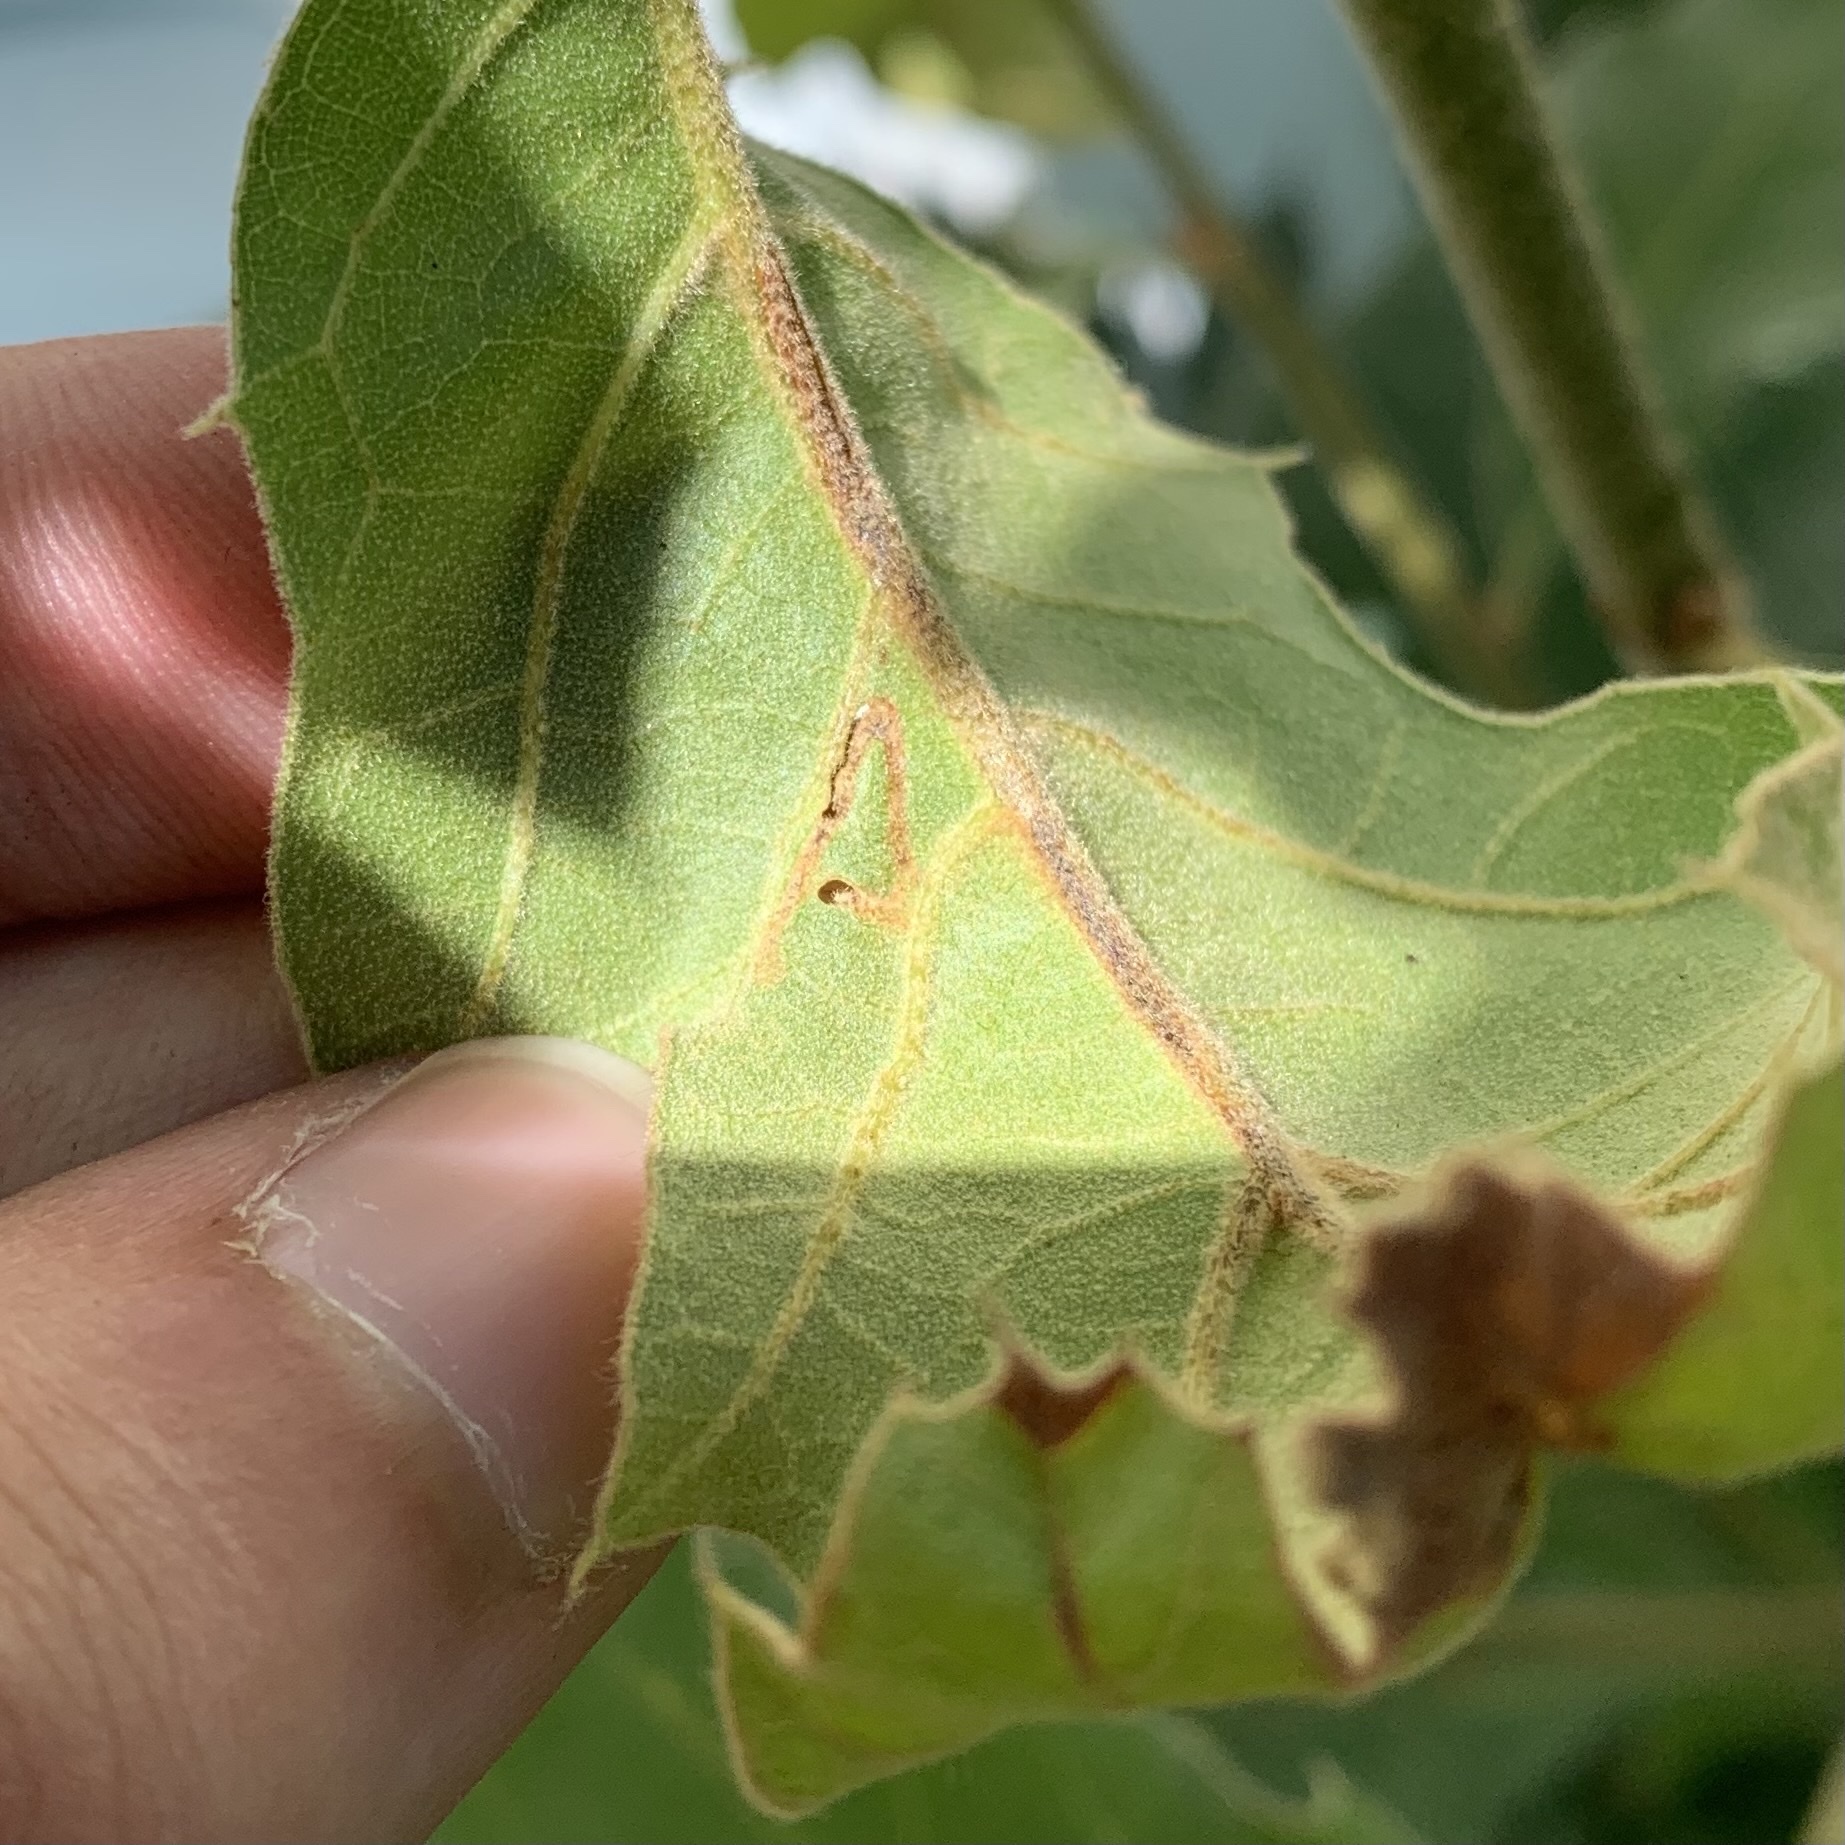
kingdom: Animalia
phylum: Arthropoda
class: Insecta
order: Lepidoptera
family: Gracillariidae
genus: Neurobathra
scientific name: Neurobathra strigifinitella
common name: Finite-channeled leafminer moth
